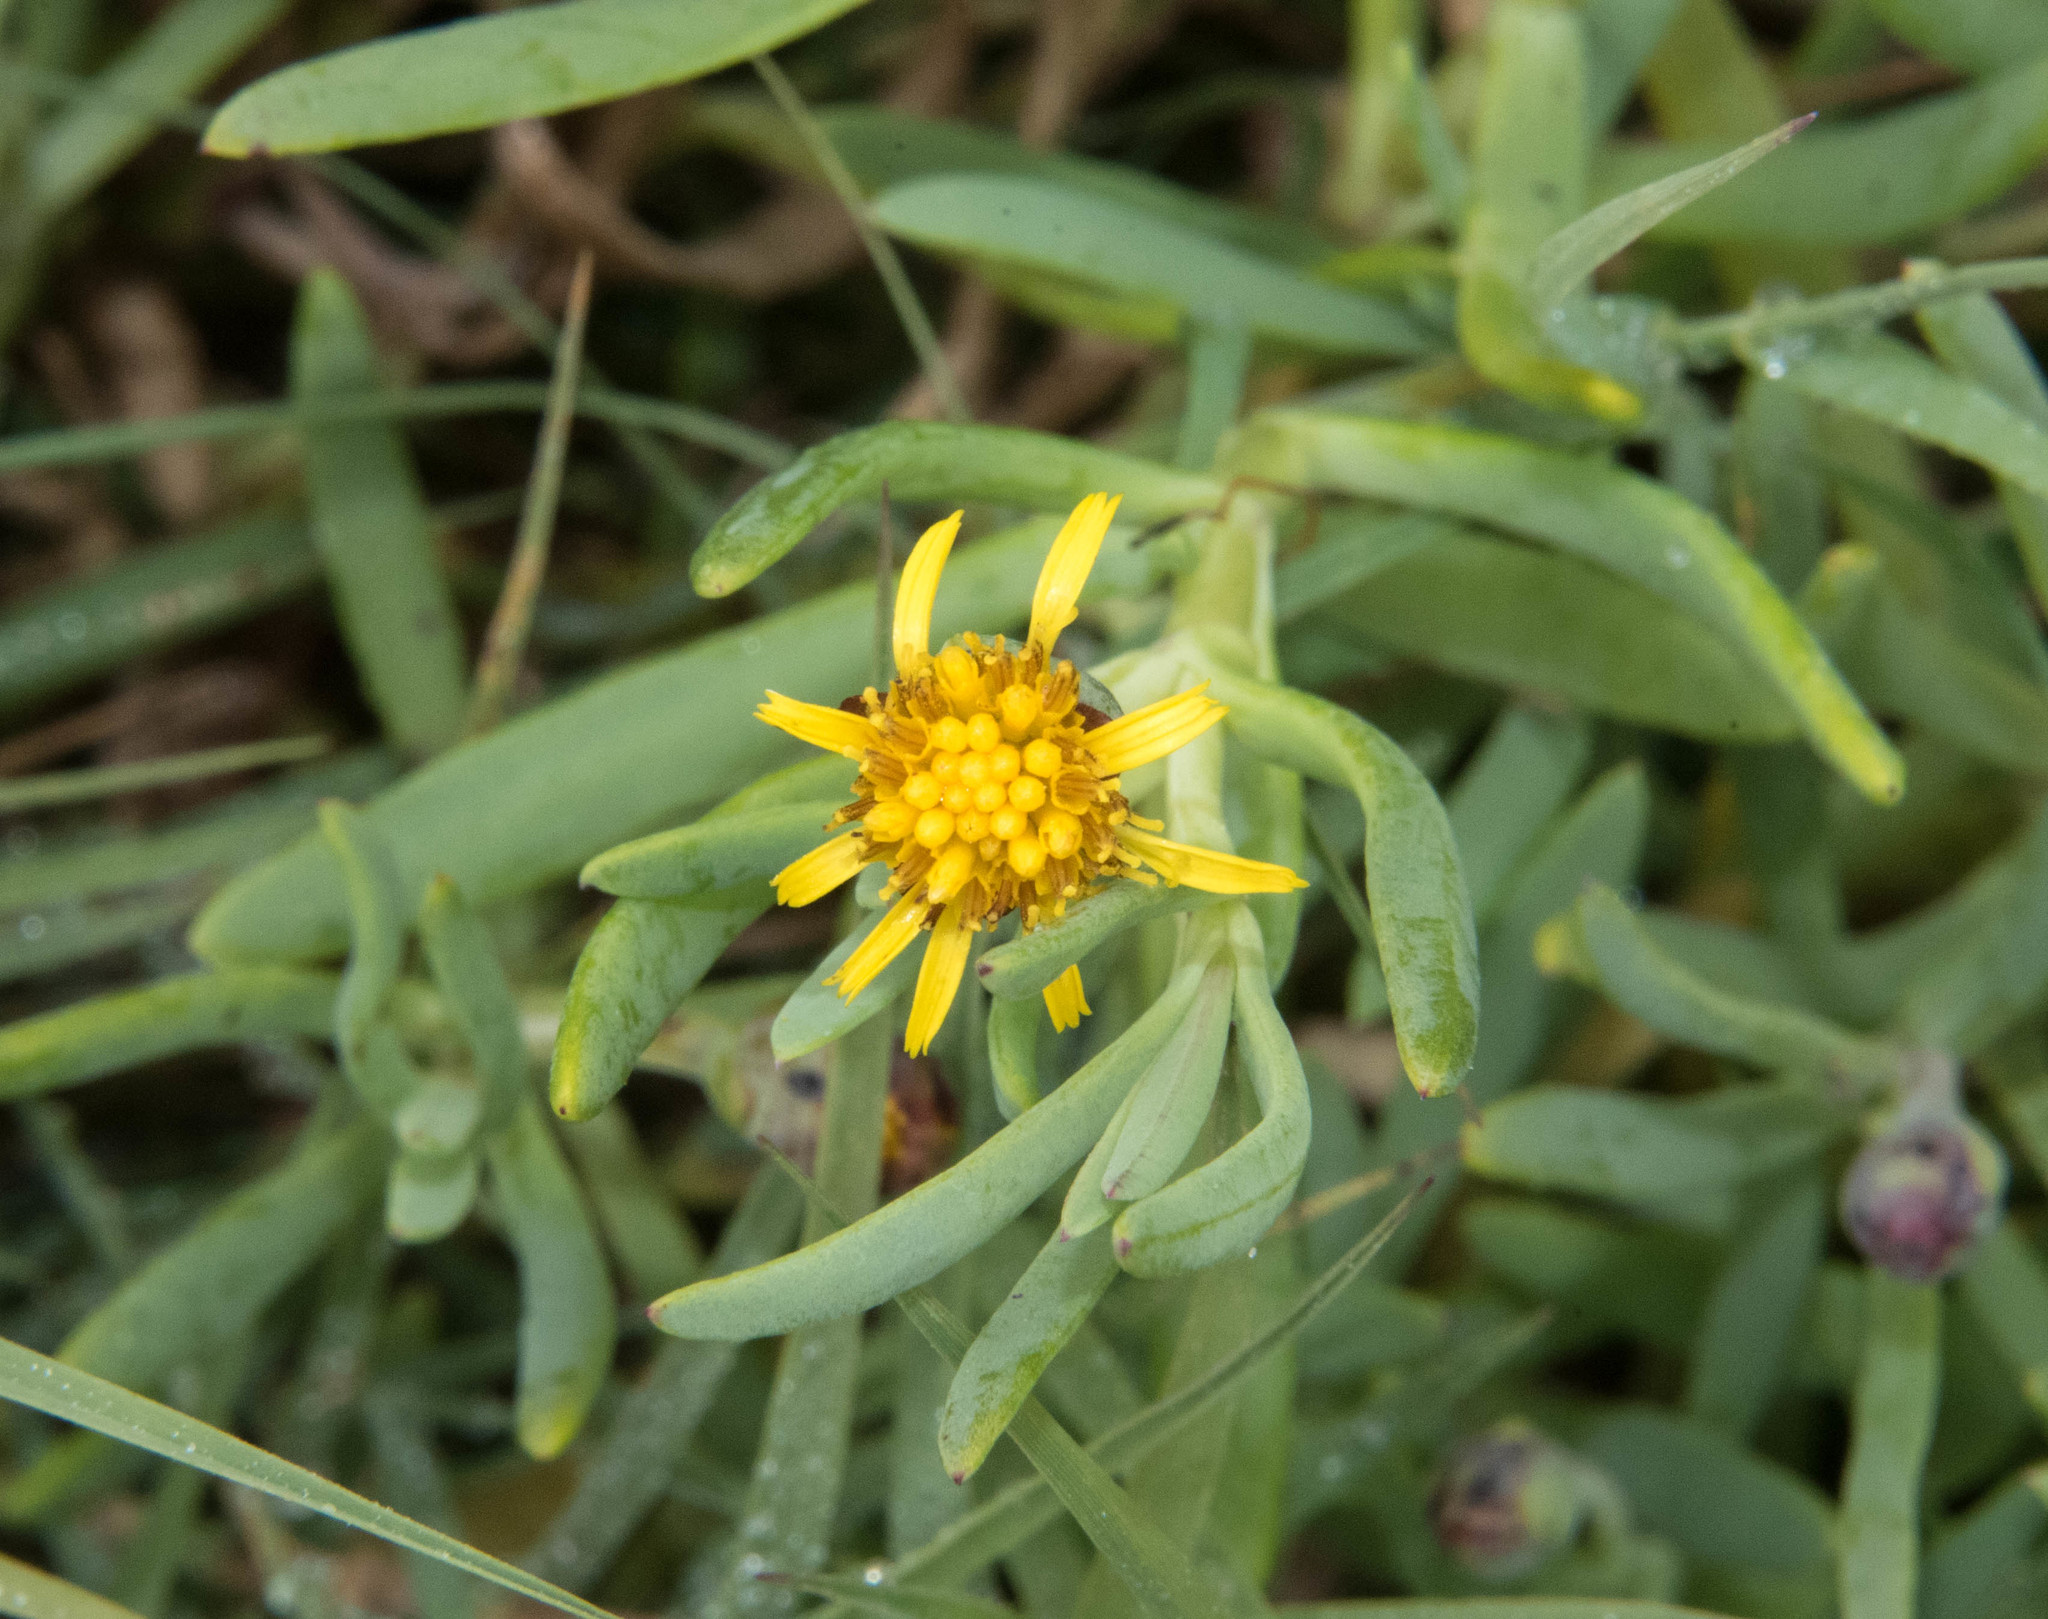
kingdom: Plantae
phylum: Tracheophyta
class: Magnoliopsida
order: Asterales
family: Asteraceae
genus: Jaumea
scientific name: Jaumea carnosa
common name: Fleshy jaumea
